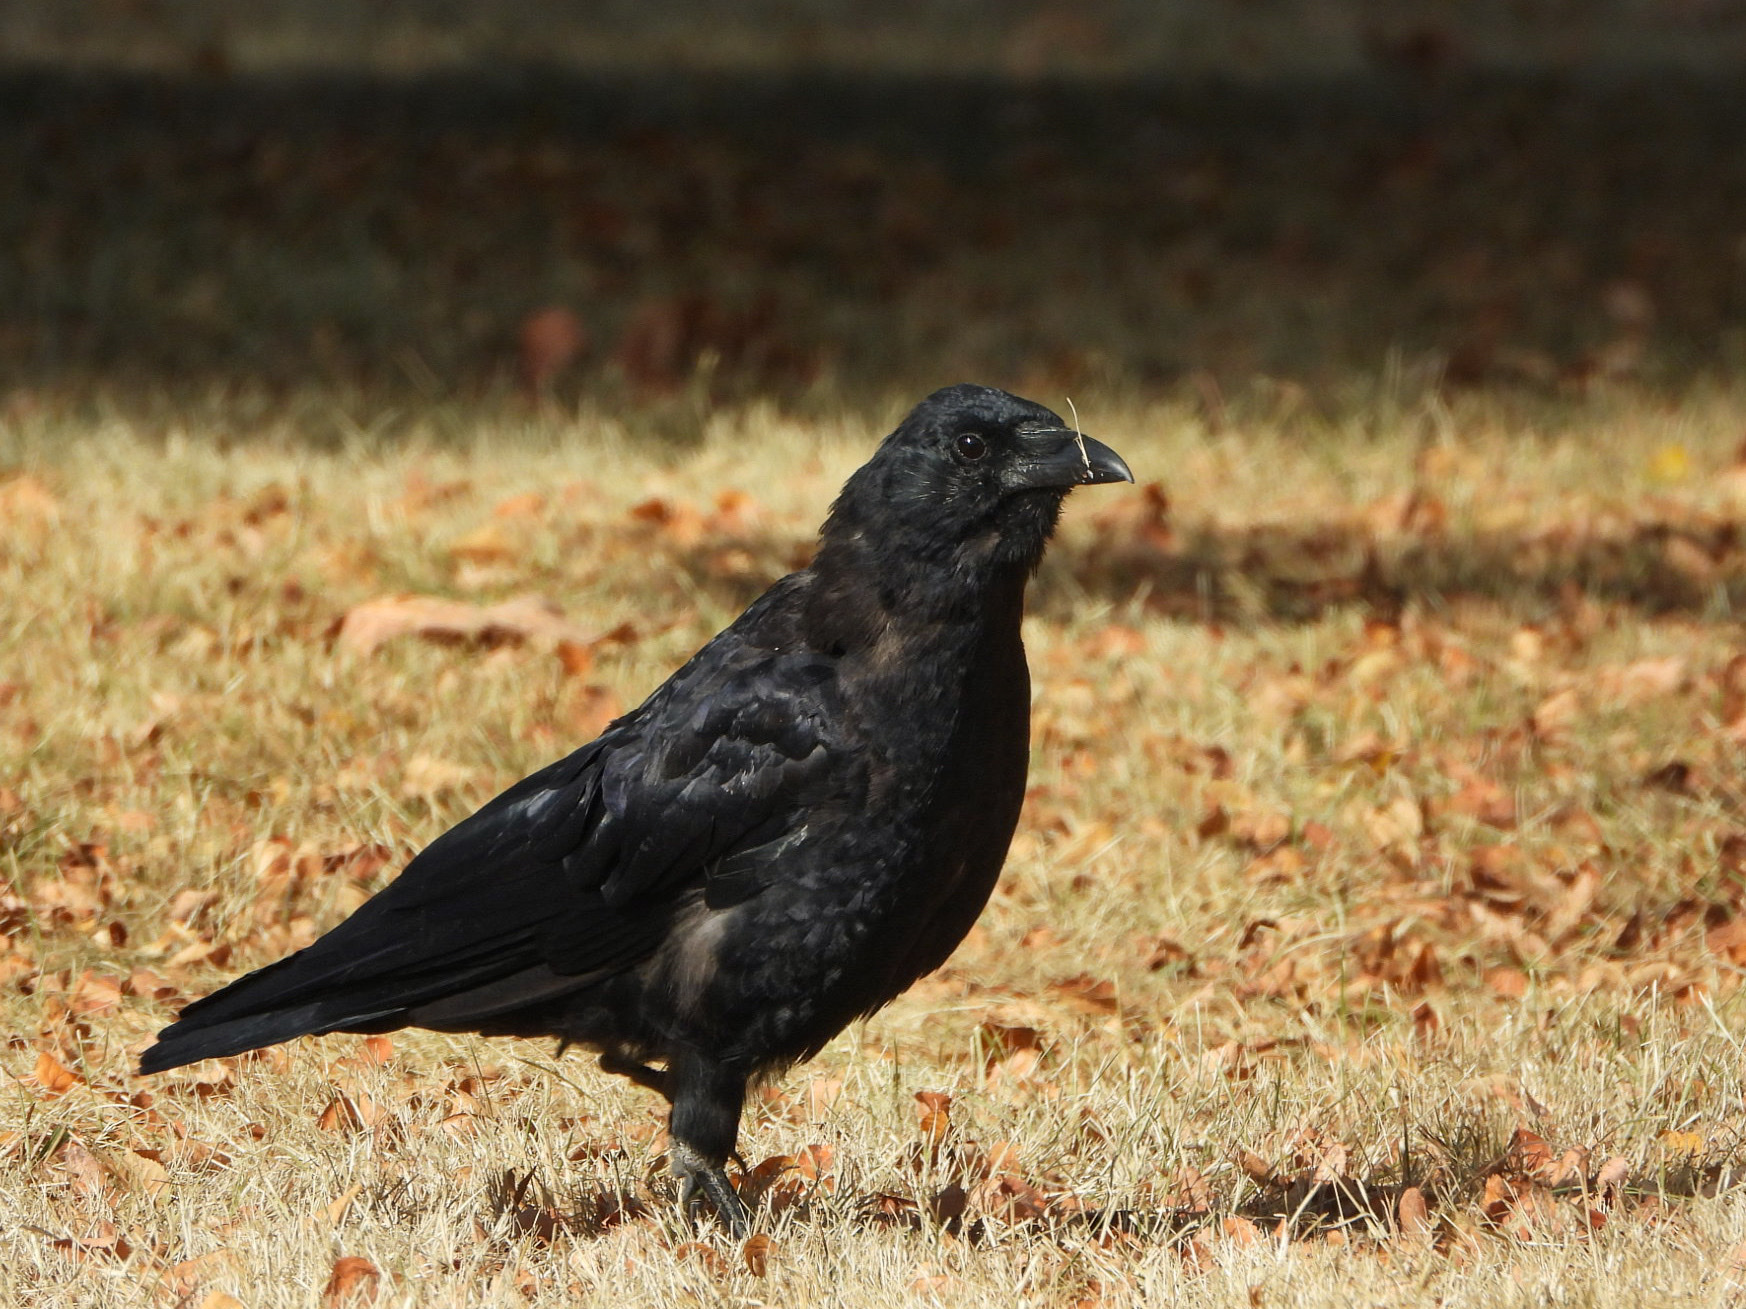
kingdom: Animalia
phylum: Chordata
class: Aves
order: Passeriformes
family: Corvidae
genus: Corvus
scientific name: Corvus brachyrhynchos
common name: American crow
